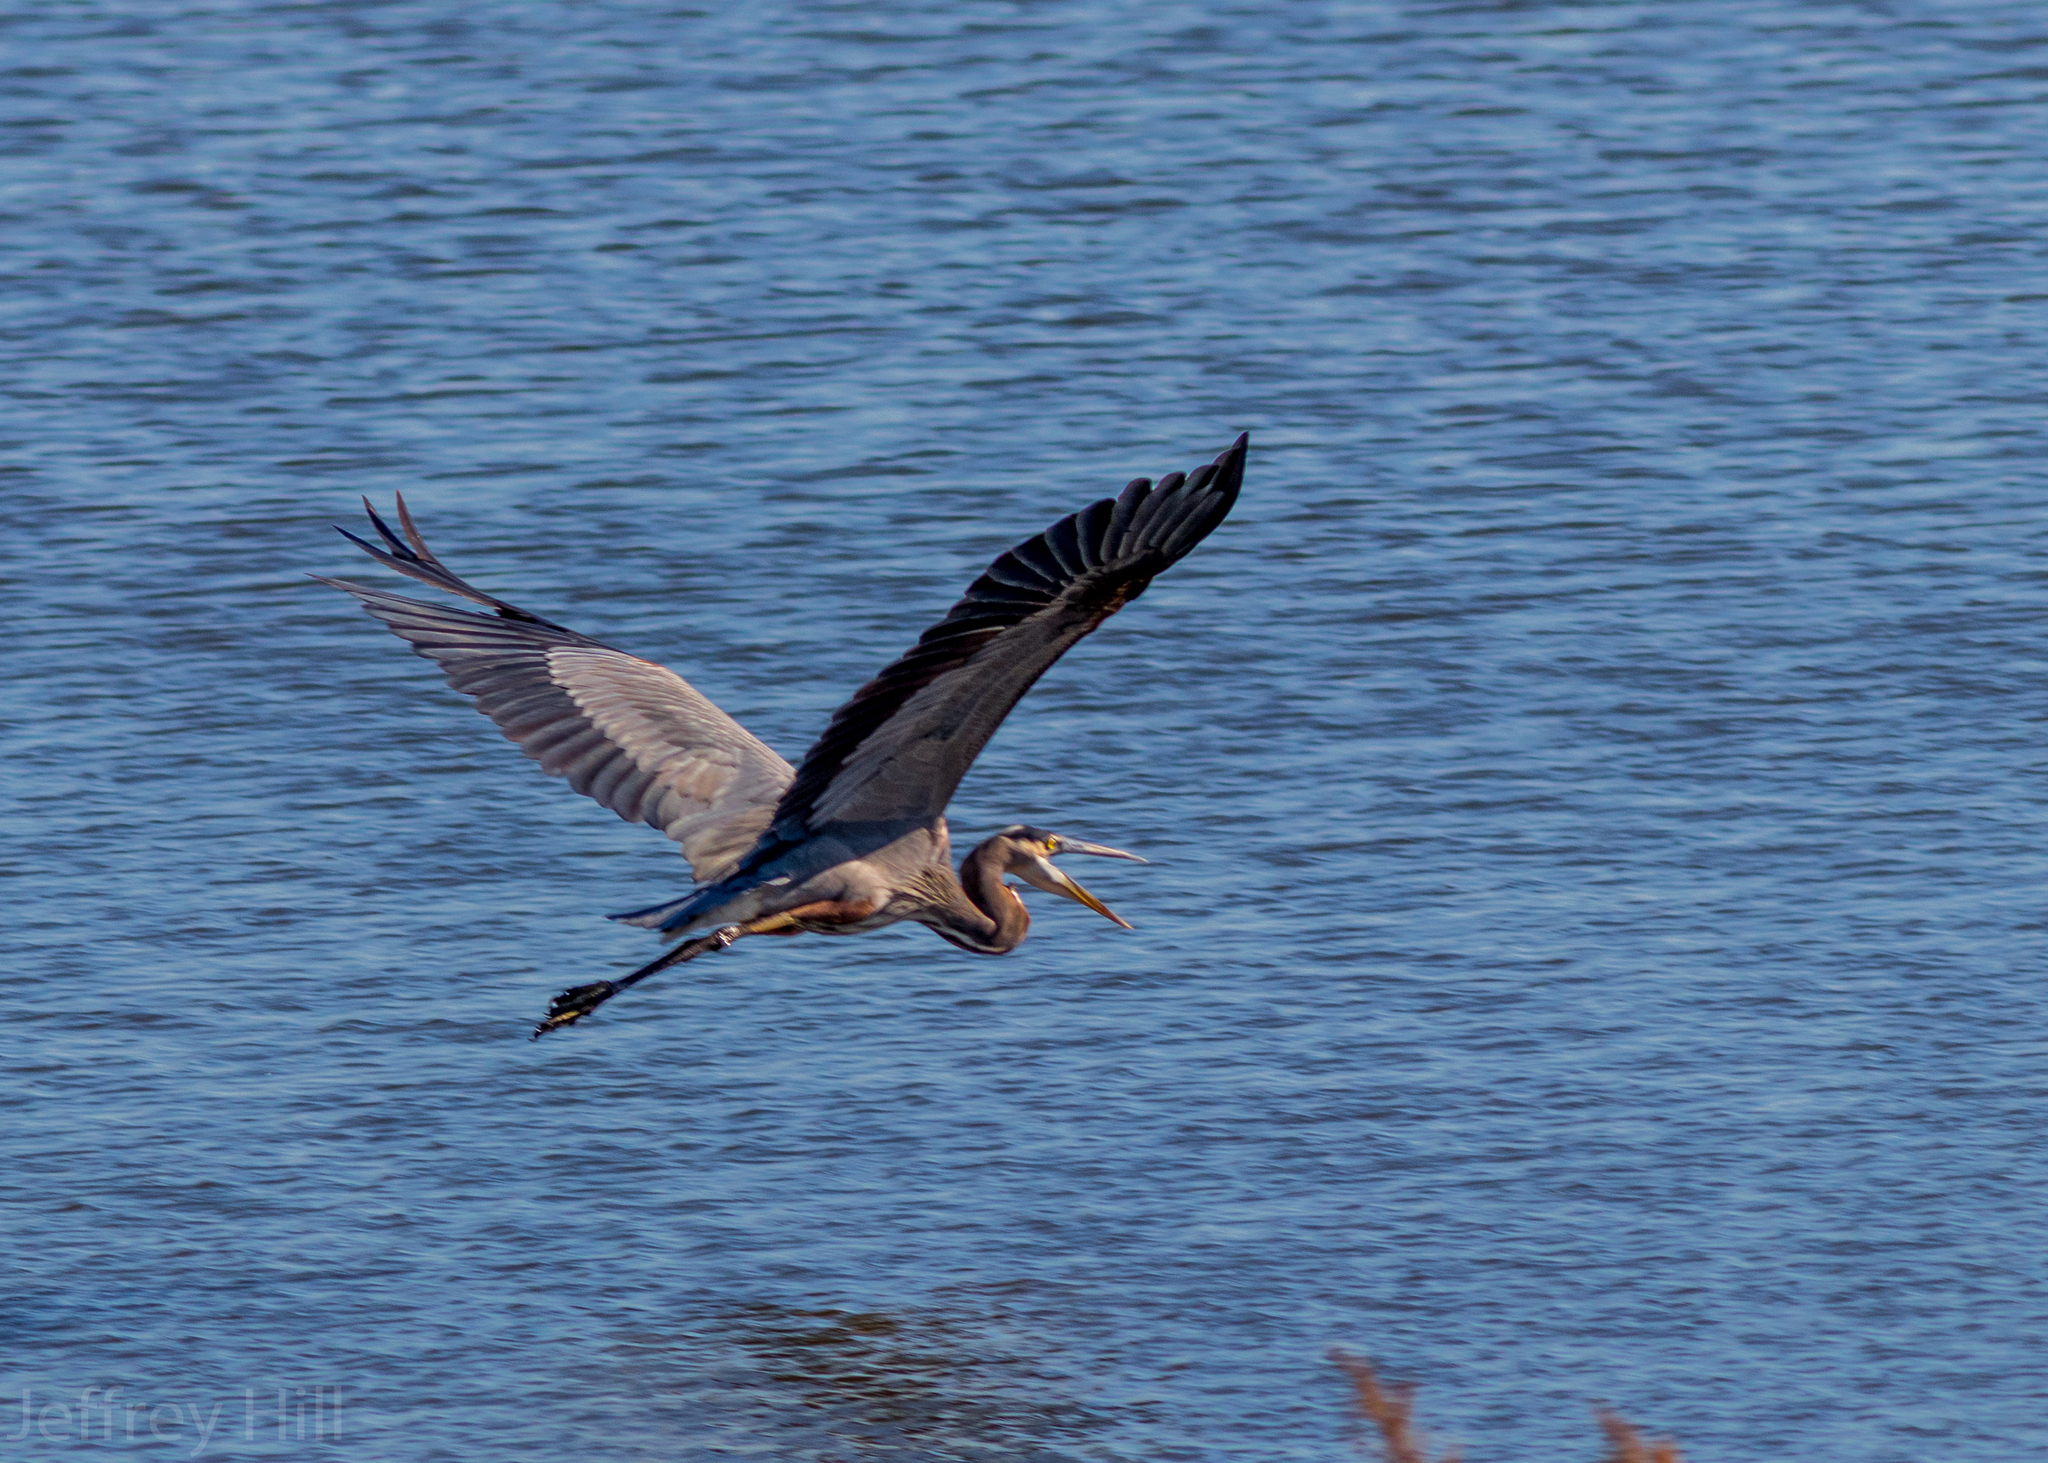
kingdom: Animalia
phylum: Chordata
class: Aves
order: Pelecaniformes
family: Ardeidae
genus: Ardea
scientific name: Ardea herodias
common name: Great blue heron
